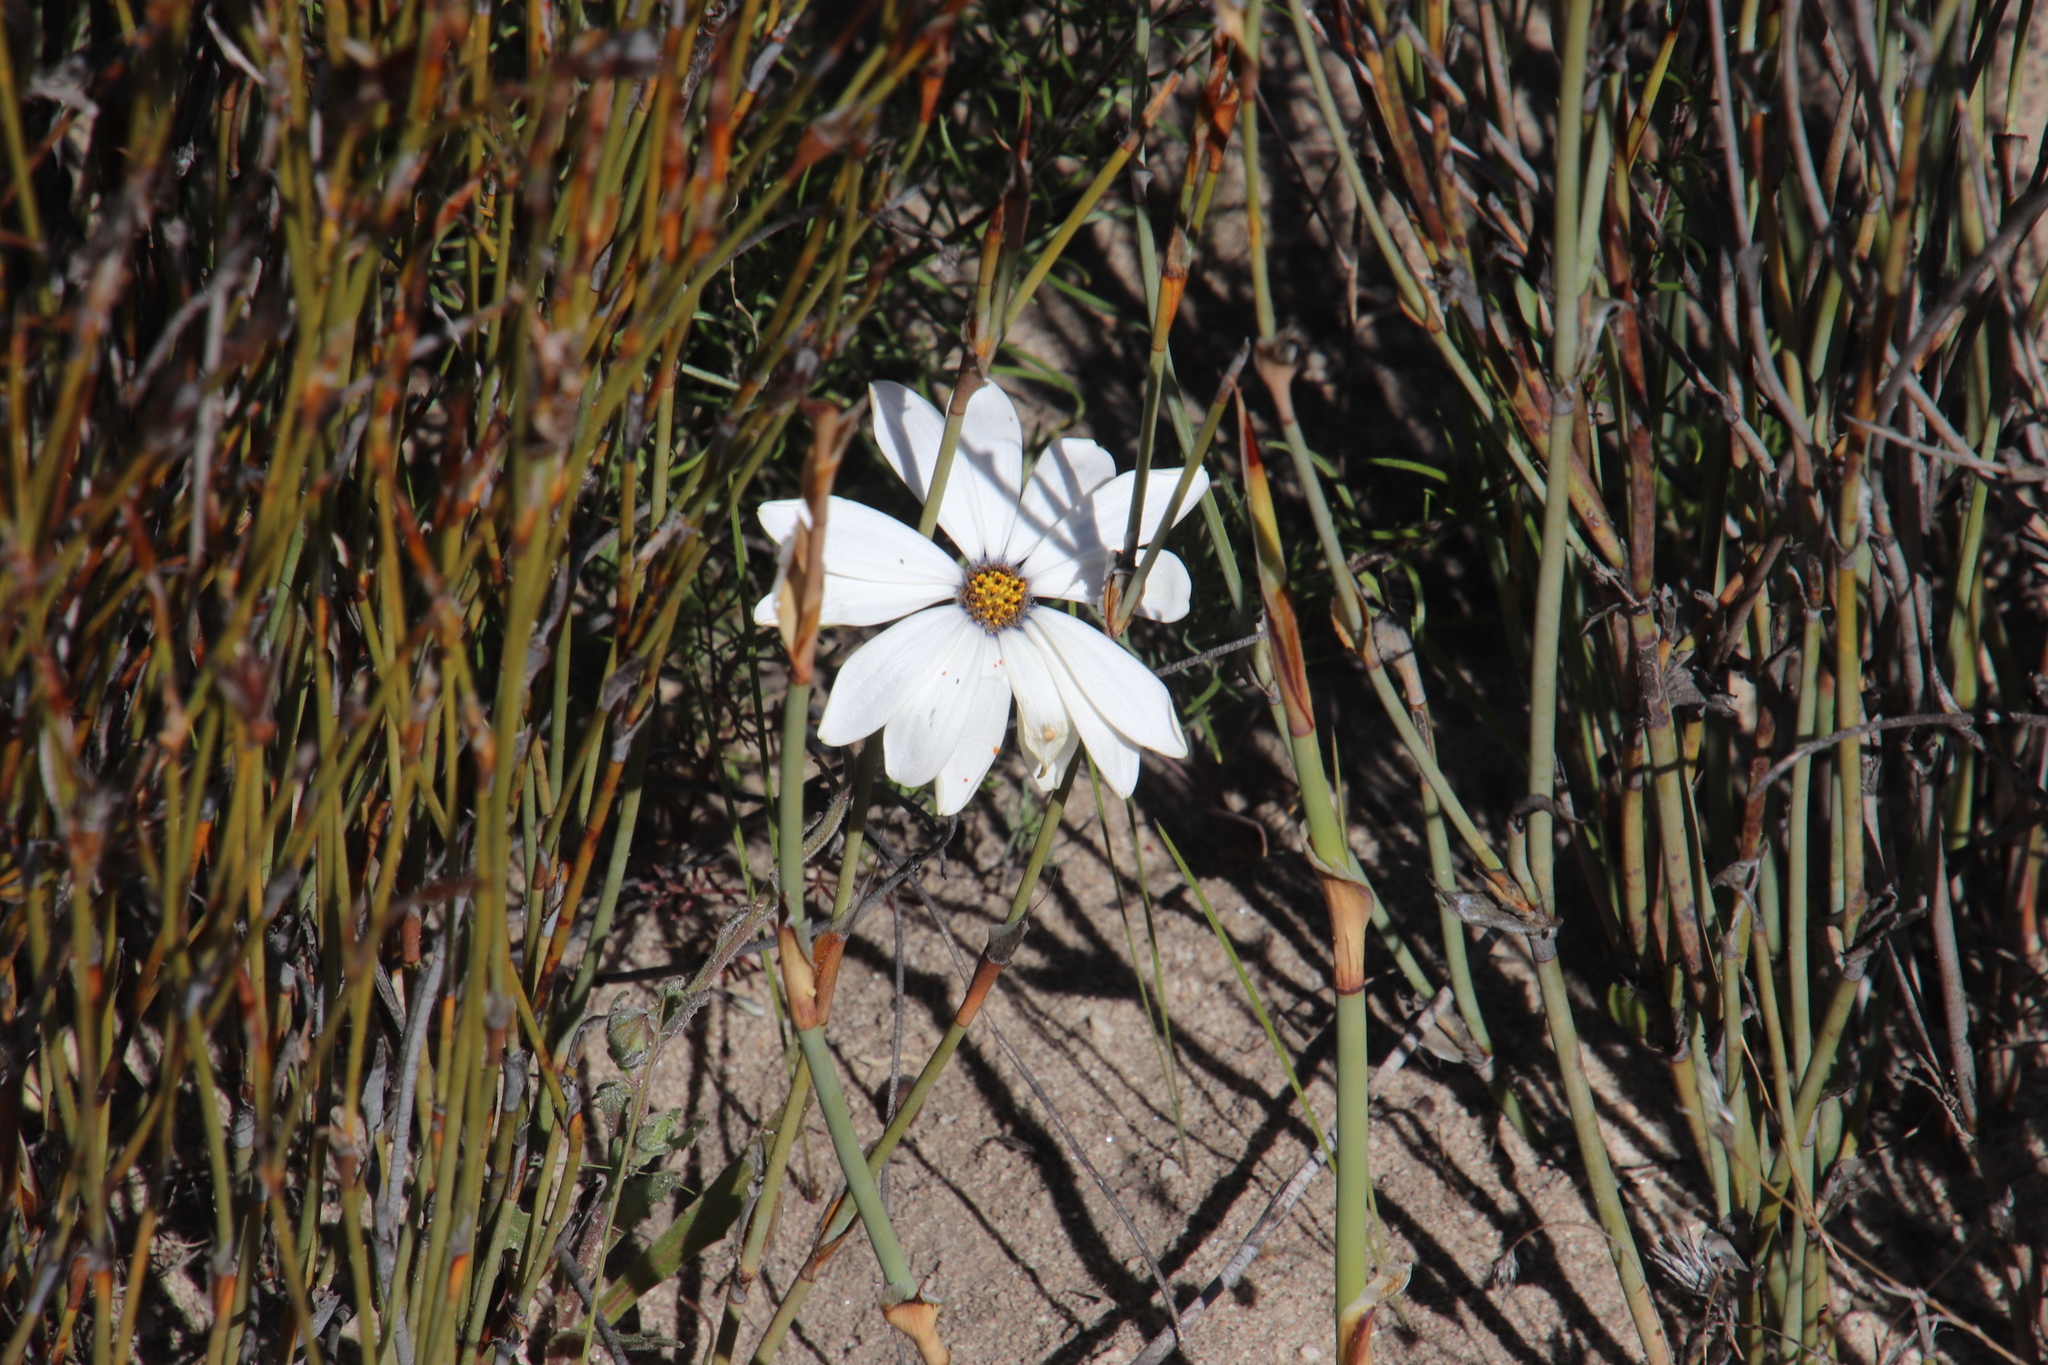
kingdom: Plantae
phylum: Tracheophyta
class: Magnoliopsida
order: Asterales
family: Asteraceae
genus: Dimorphotheca
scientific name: Dimorphotheca pluvialis
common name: Weather prophet
